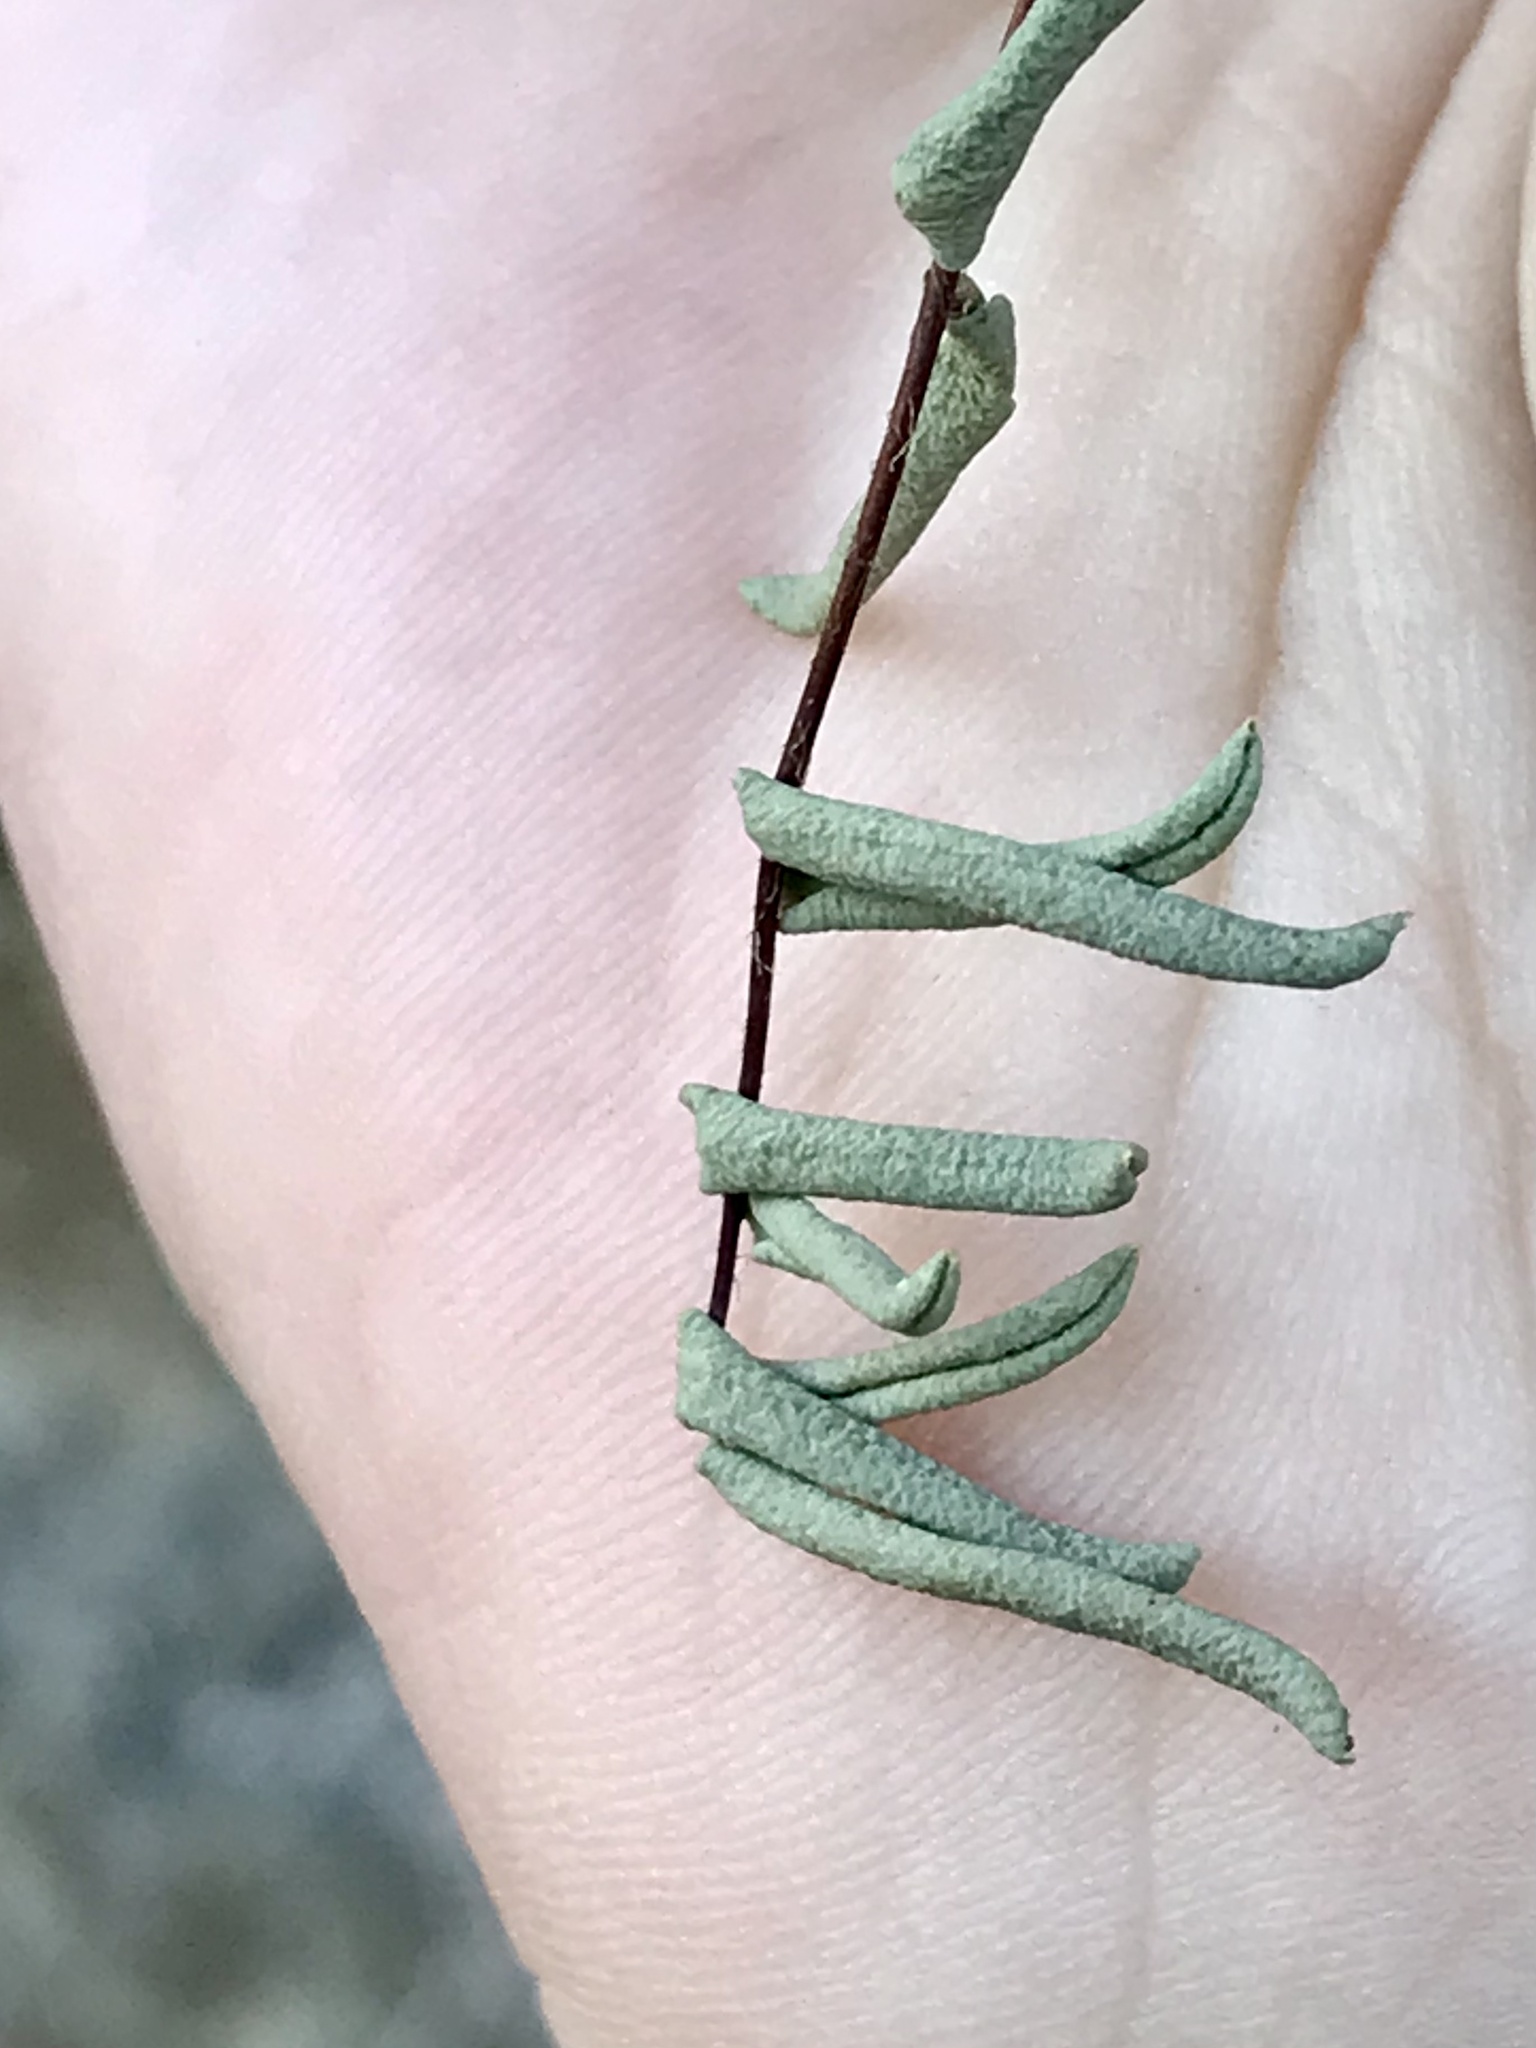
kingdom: Plantae
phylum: Tracheophyta
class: Polypodiopsida
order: Polypodiales
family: Pteridaceae
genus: Pellaea
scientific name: Pellaea glabella
